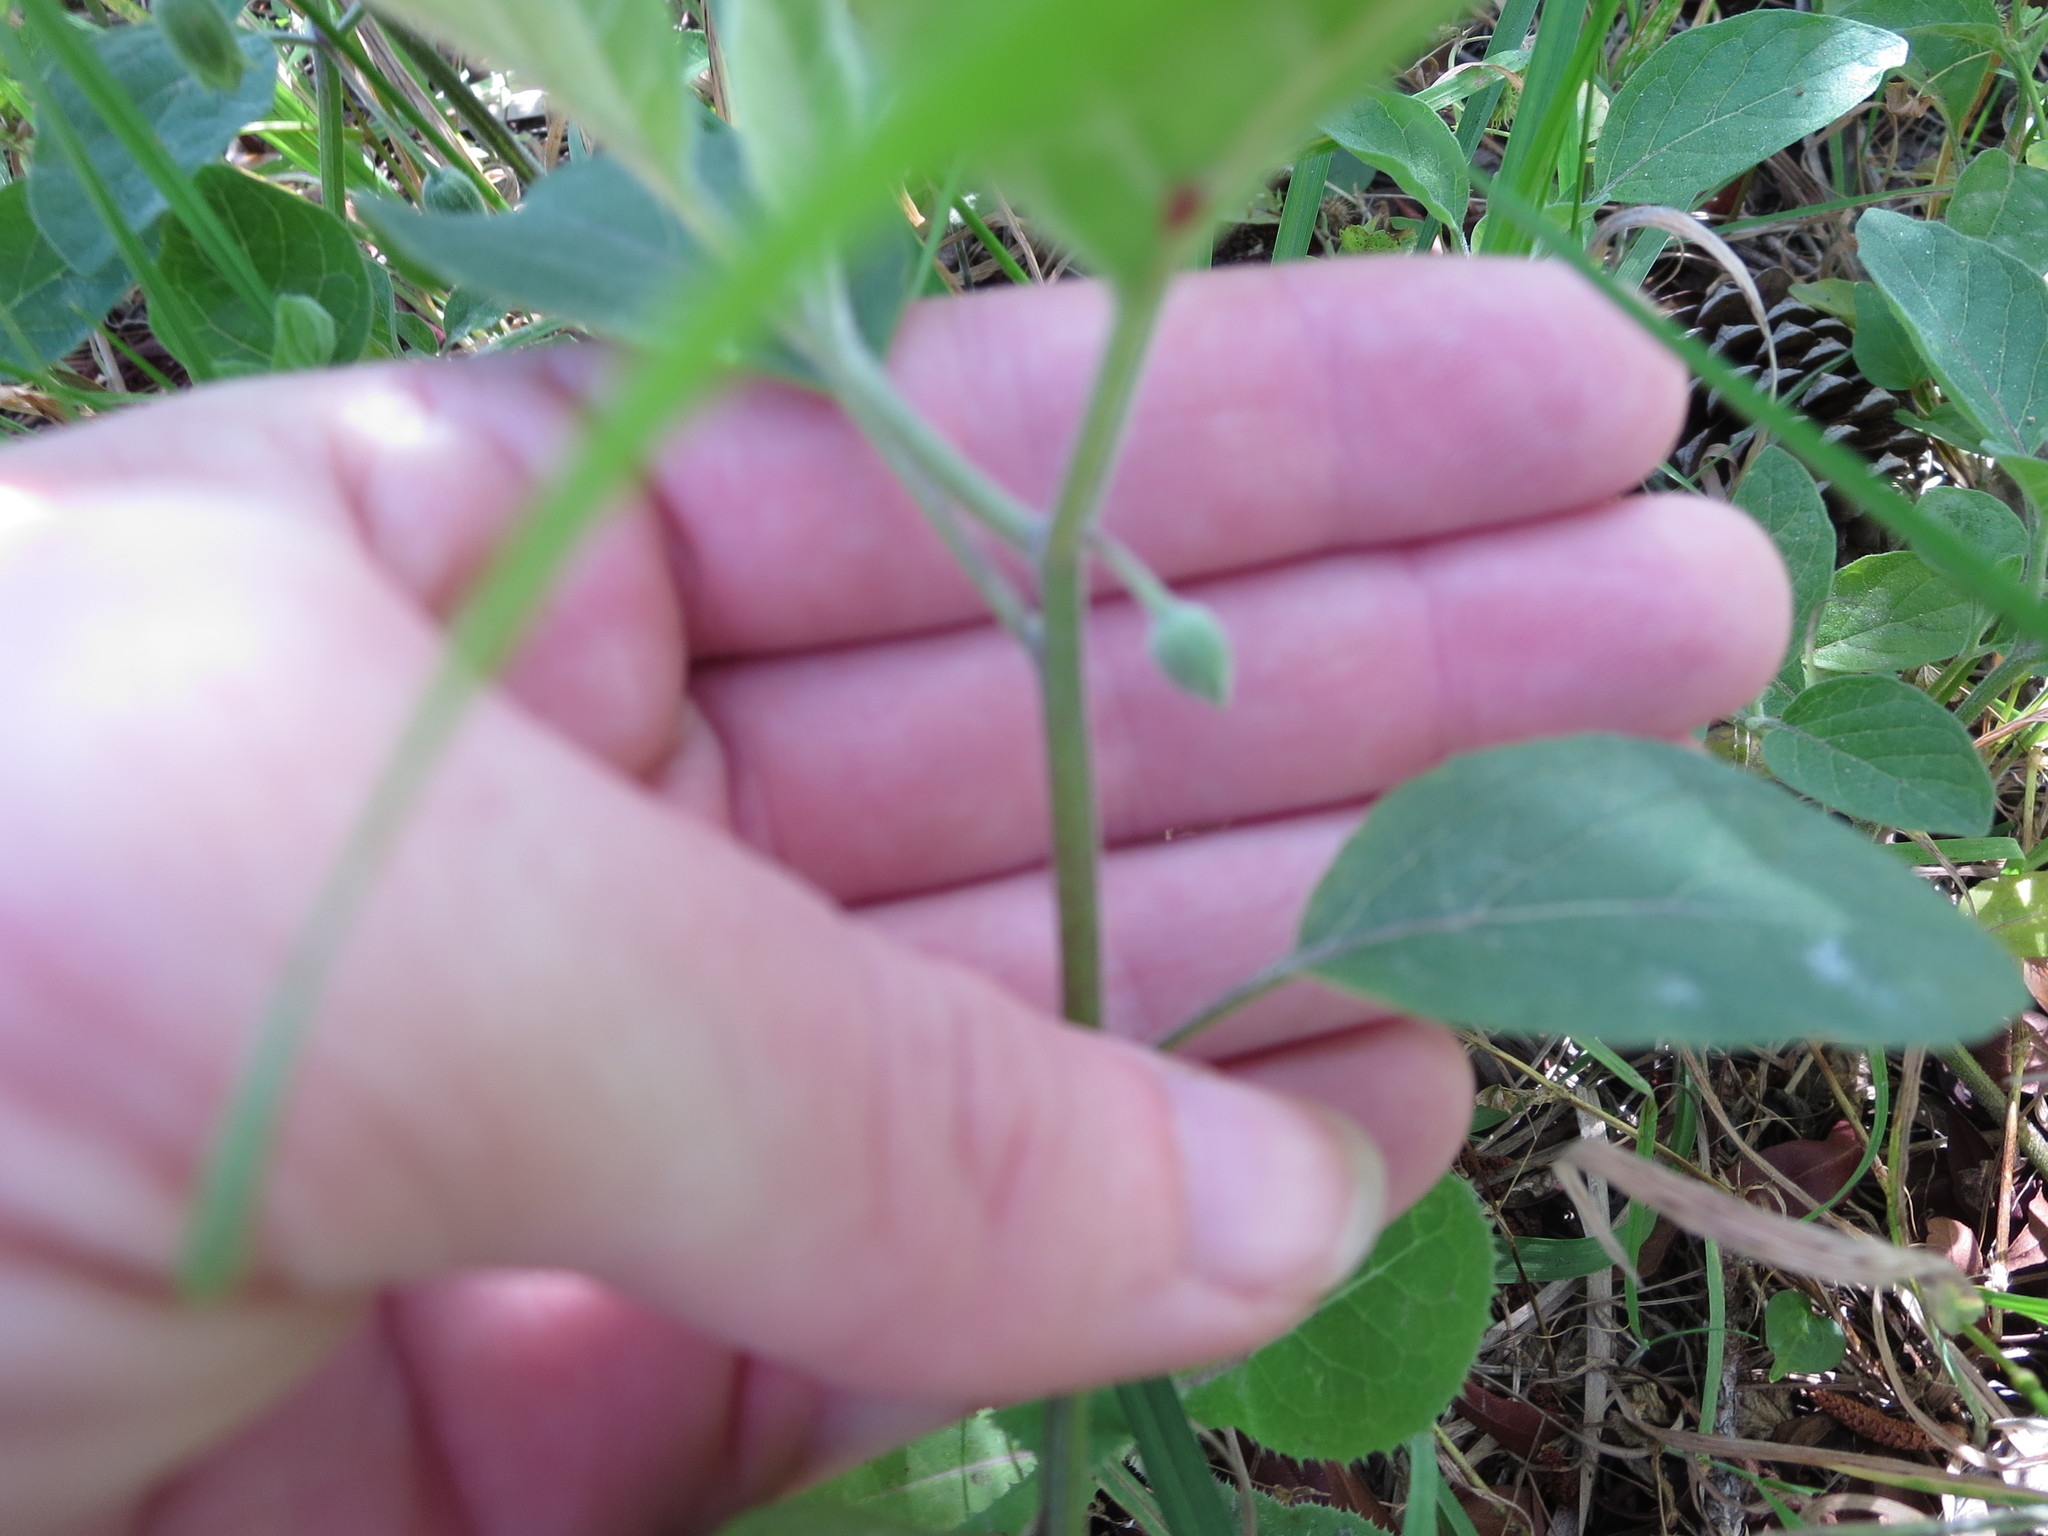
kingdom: Plantae
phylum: Tracheophyta
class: Magnoliopsida
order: Solanales
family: Solanaceae
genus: Physalis
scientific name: Physalis walteri
